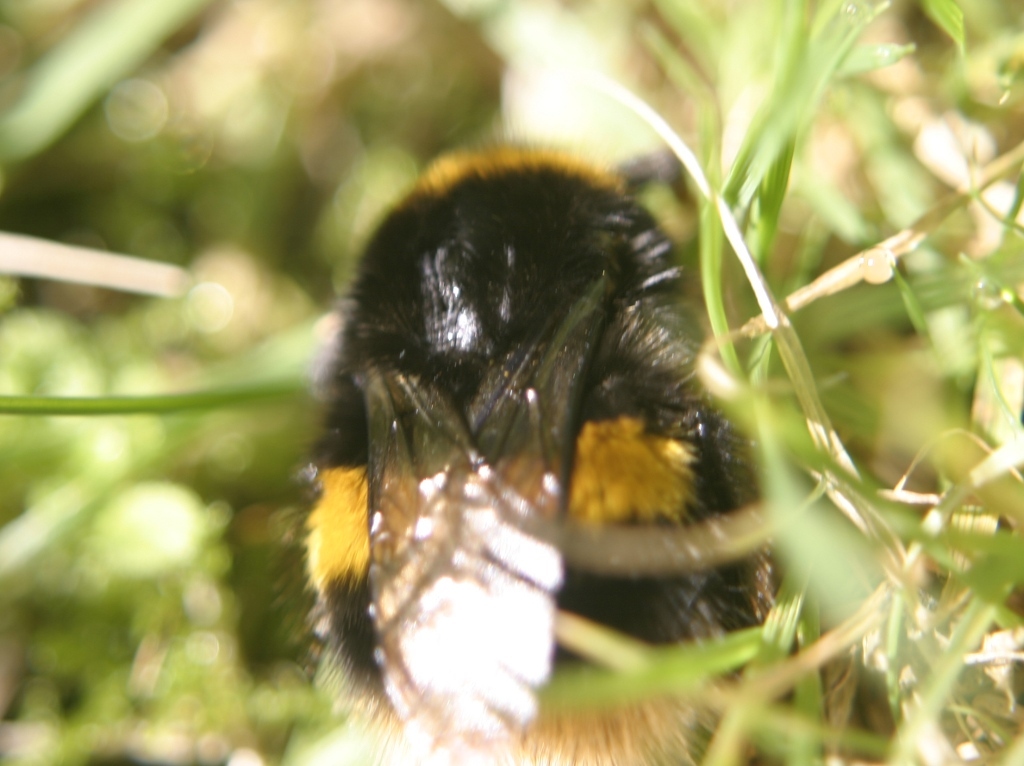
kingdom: Animalia
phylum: Arthropoda
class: Insecta
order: Hymenoptera
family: Apidae
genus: Bombus
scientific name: Bombus terrestris
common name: Buff-tailed bumblebee
